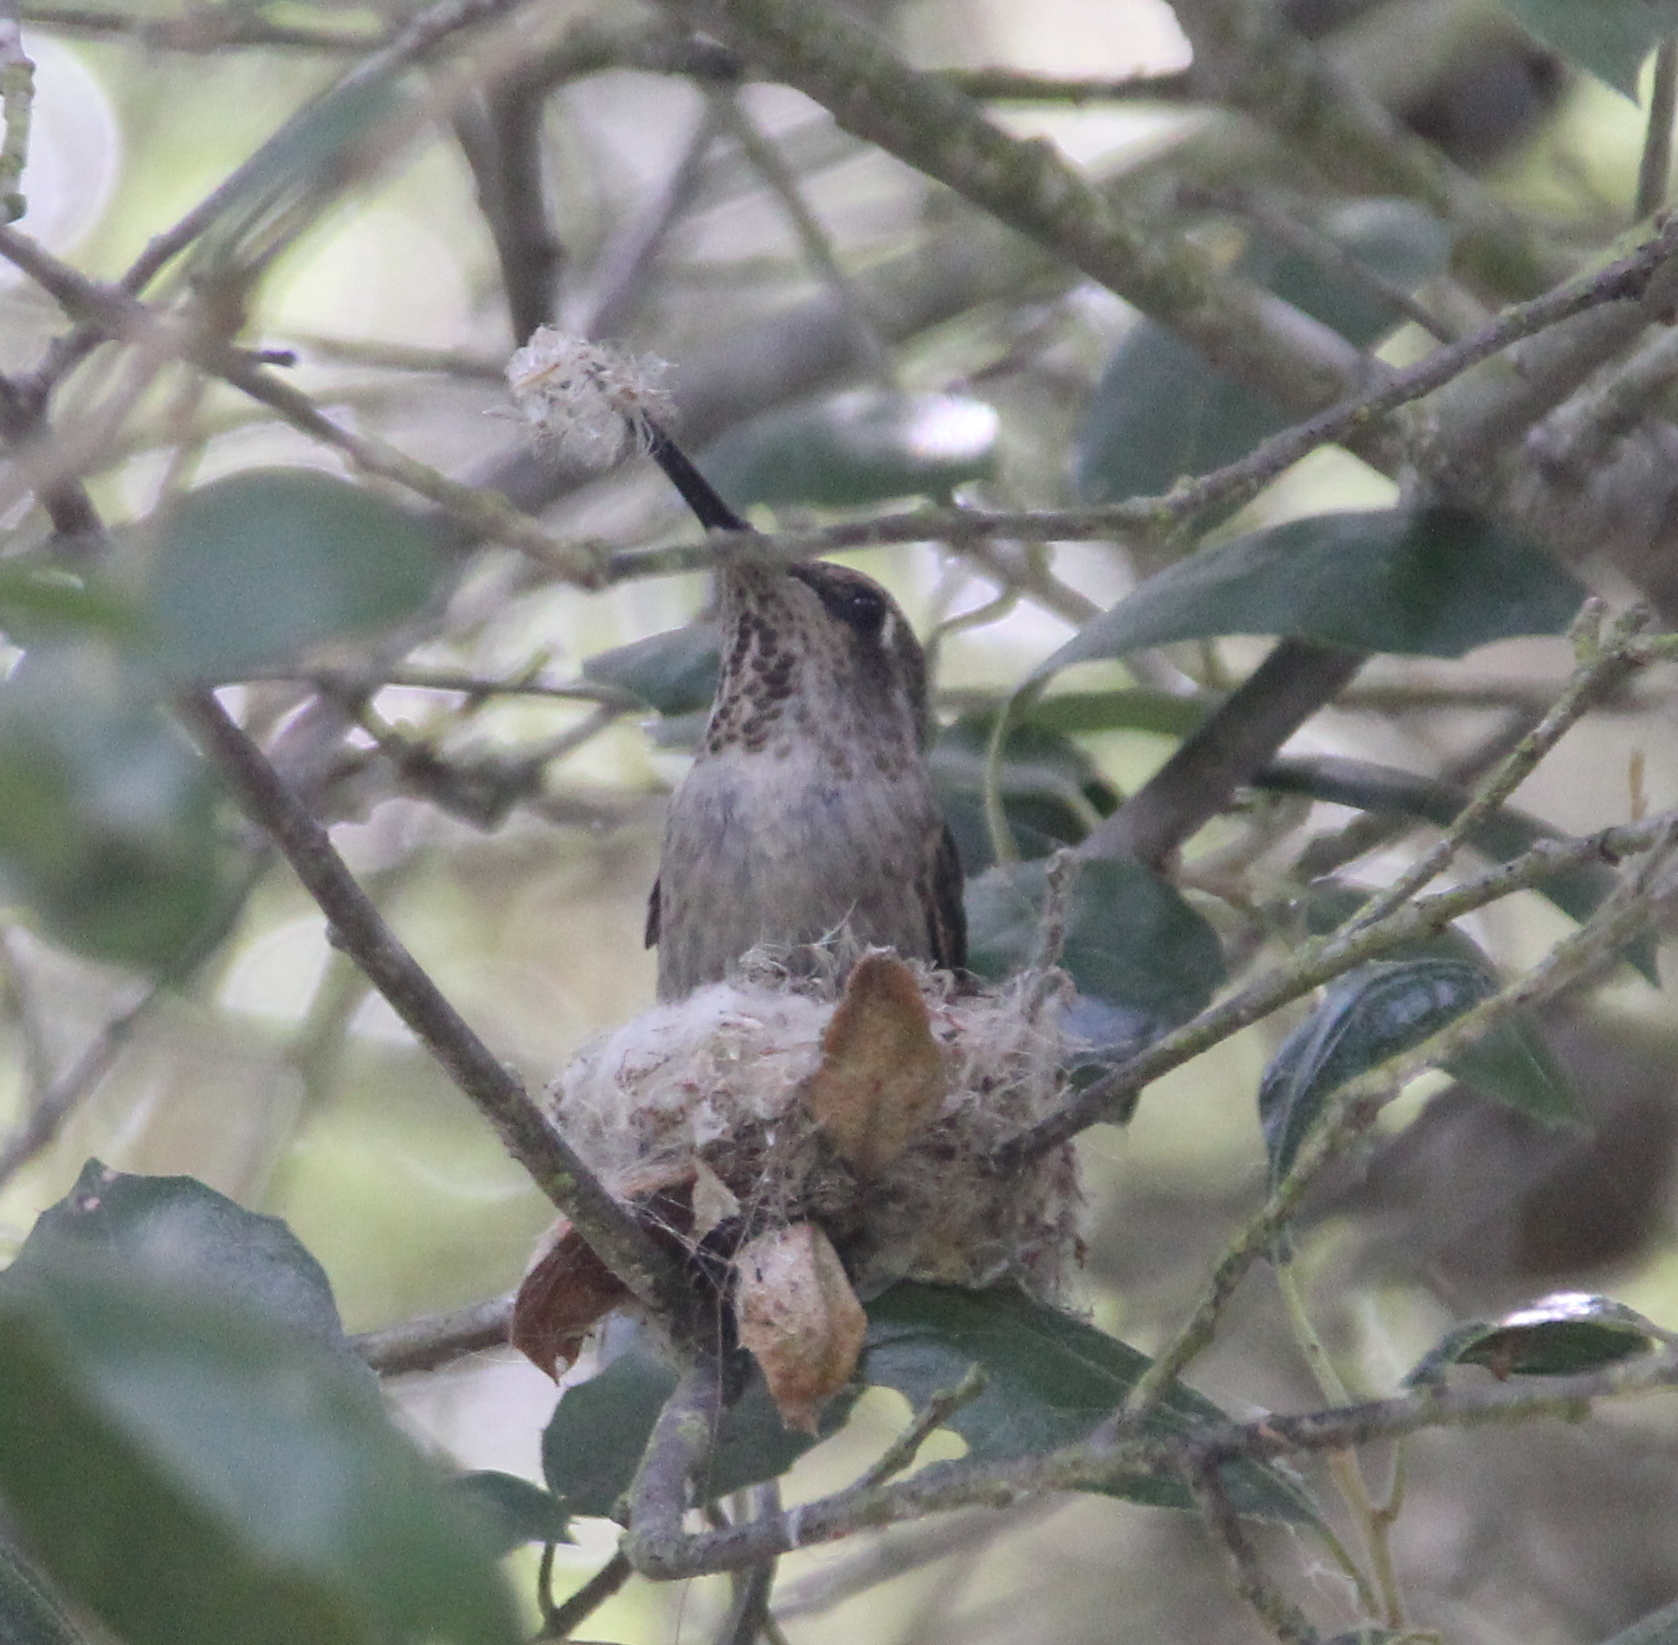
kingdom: Animalia
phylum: Chordata
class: Aves
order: Apodiformes
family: Trochilidae
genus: Calypte
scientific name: Calypte anna
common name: Anna's hummingbird
